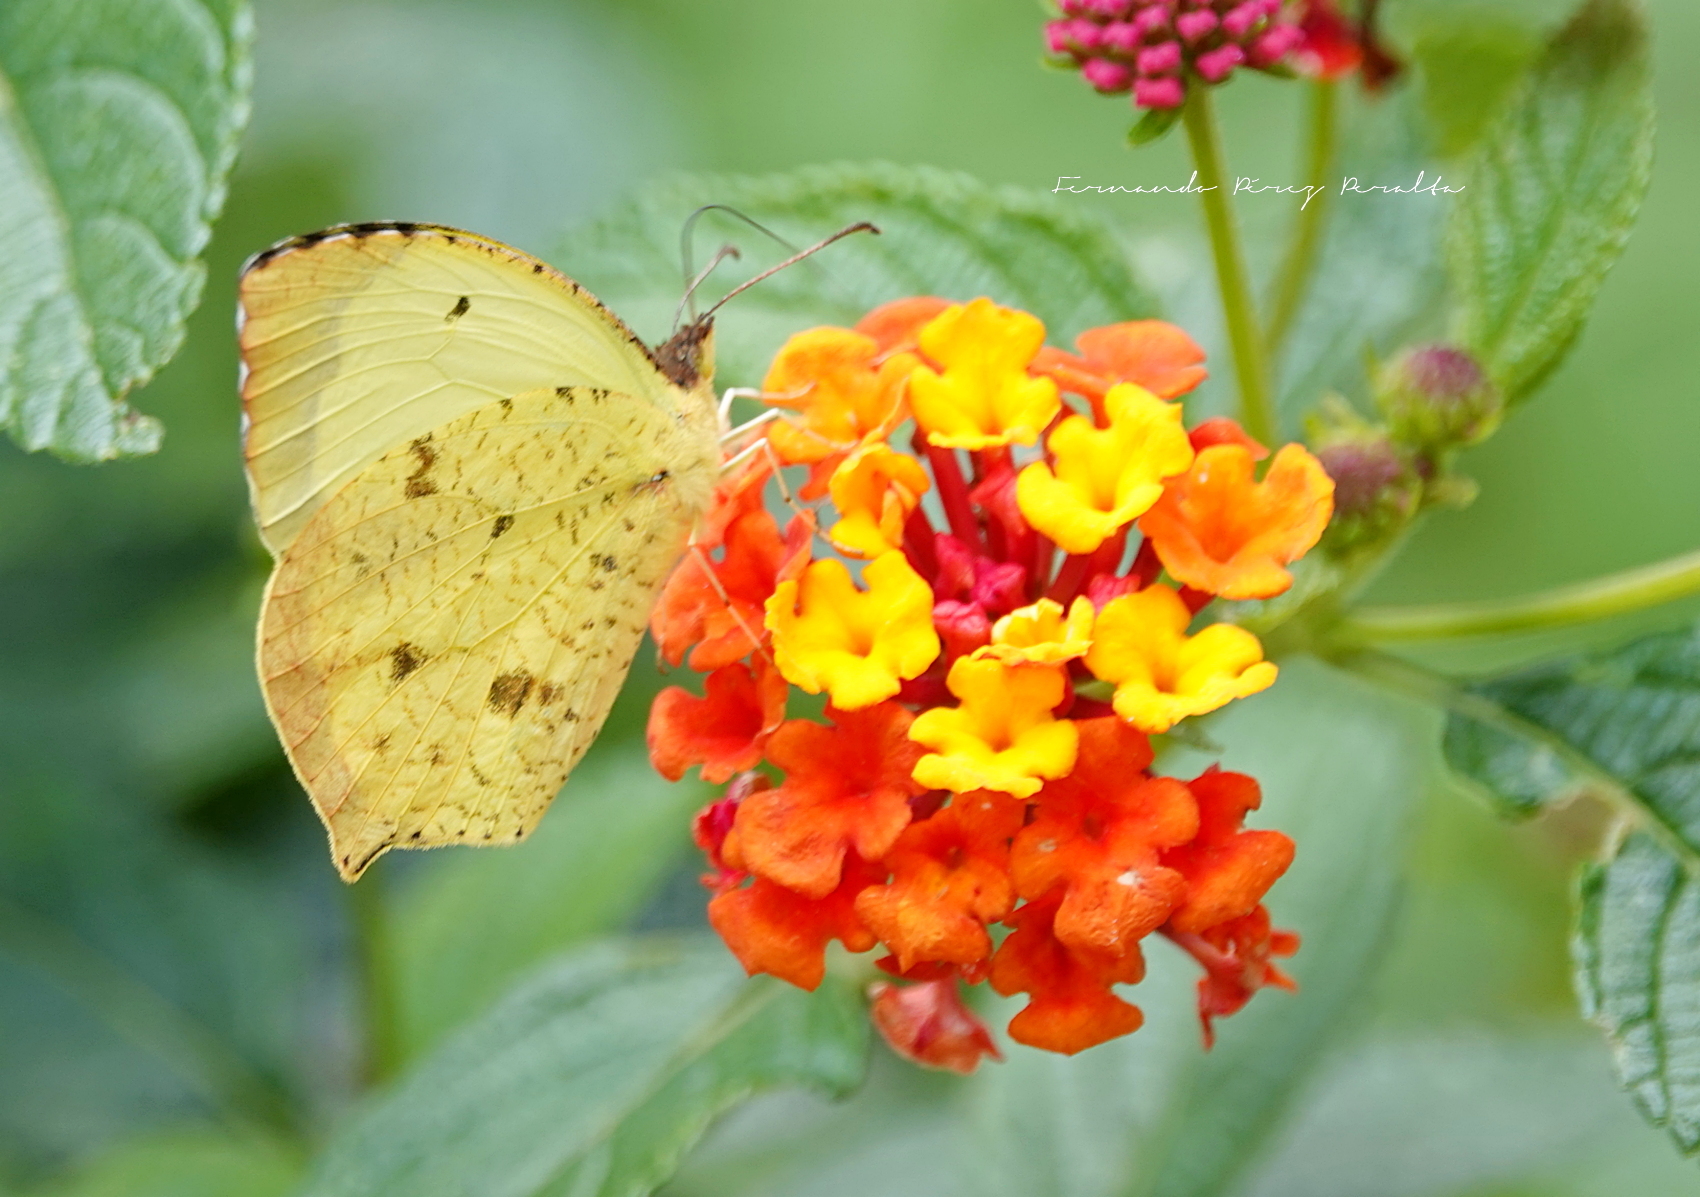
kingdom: Animalia
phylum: Arthropoda
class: Insecta
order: Lepidoptera
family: Pieridae
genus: Abaeis
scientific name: Abaeis salome
